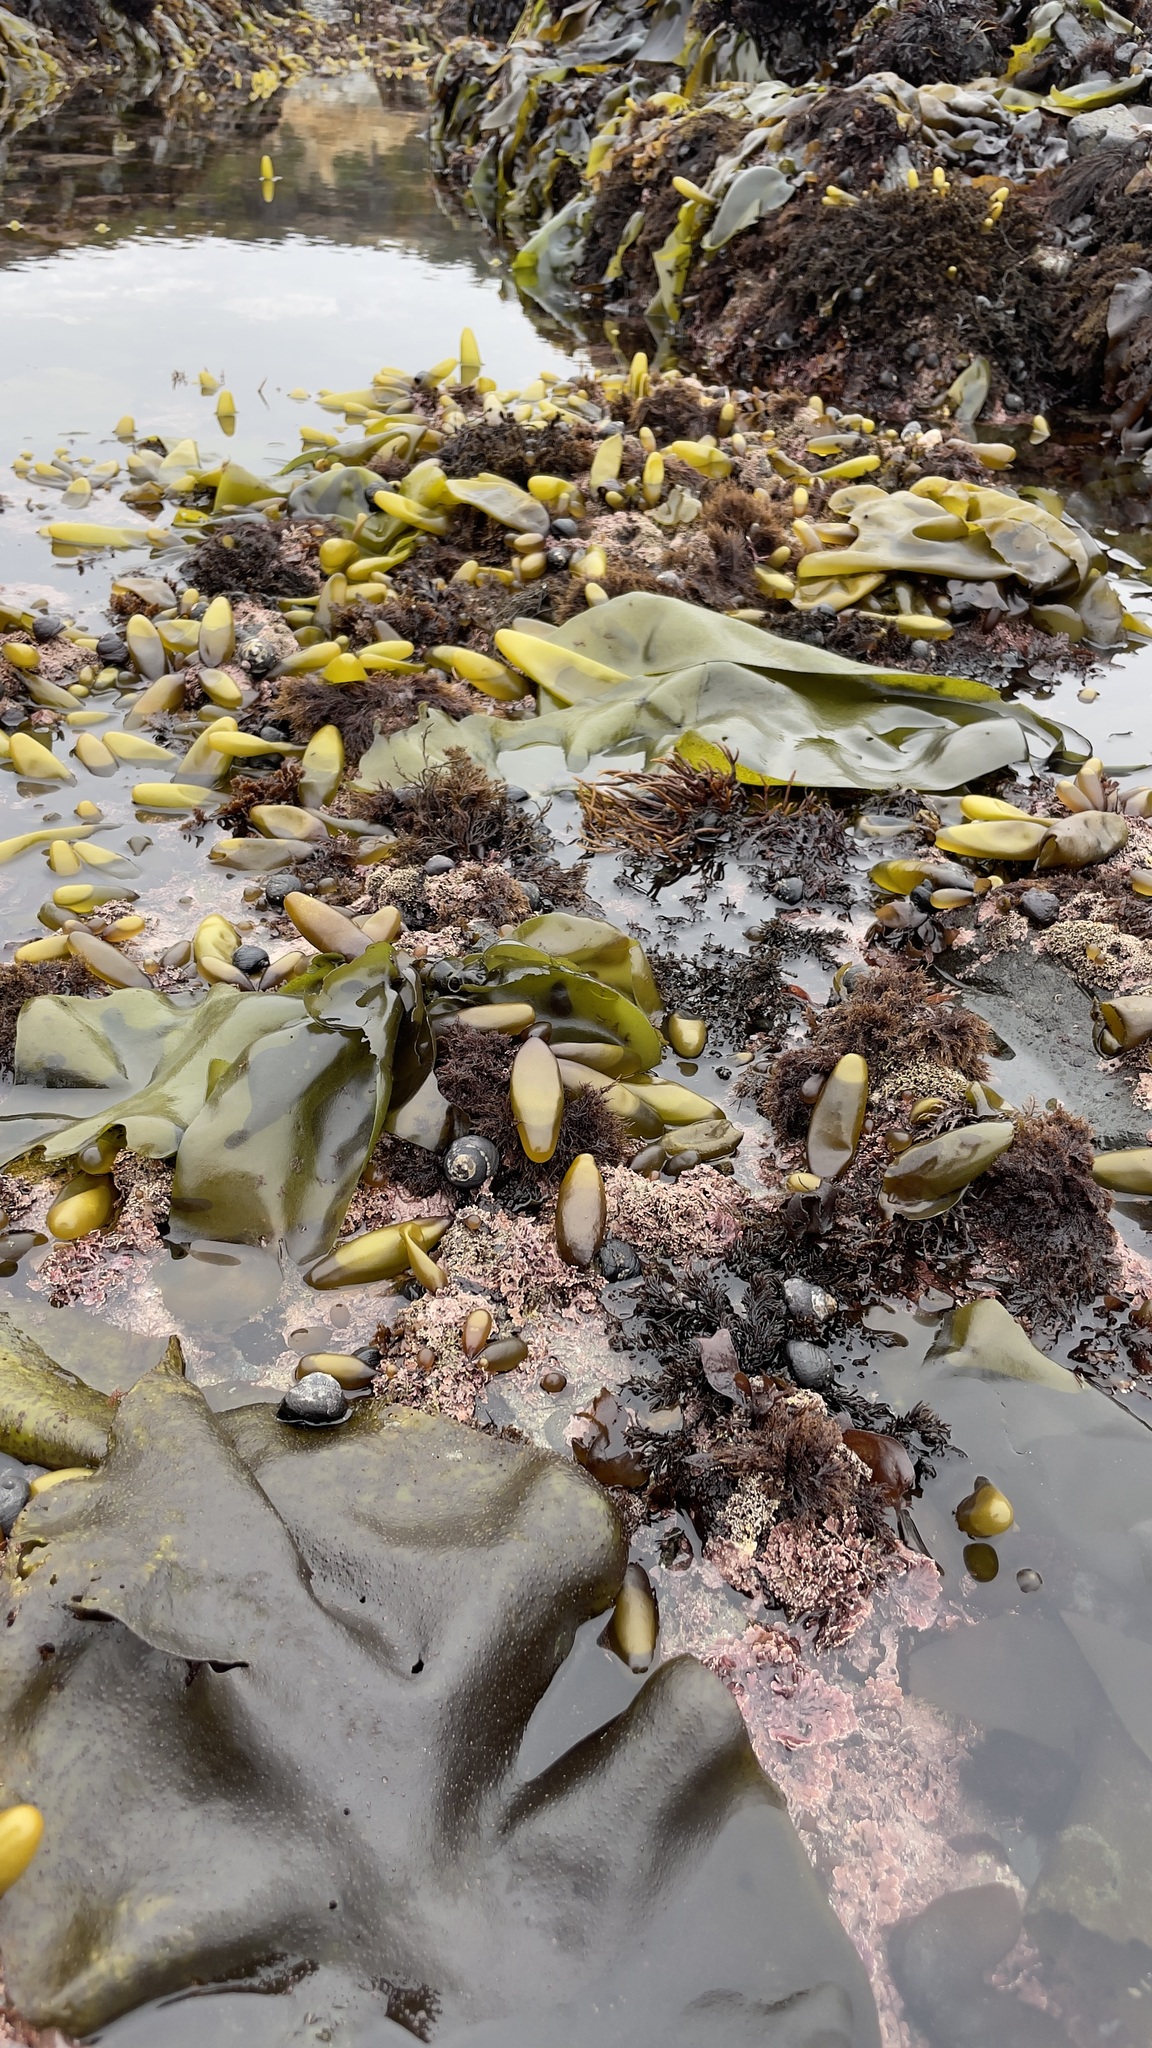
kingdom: Plantae
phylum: Rhodophyta
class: Florideophyceae
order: Palmariales
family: Palmariaceae
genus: Halosaccion
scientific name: Halosaccion glandiforme
